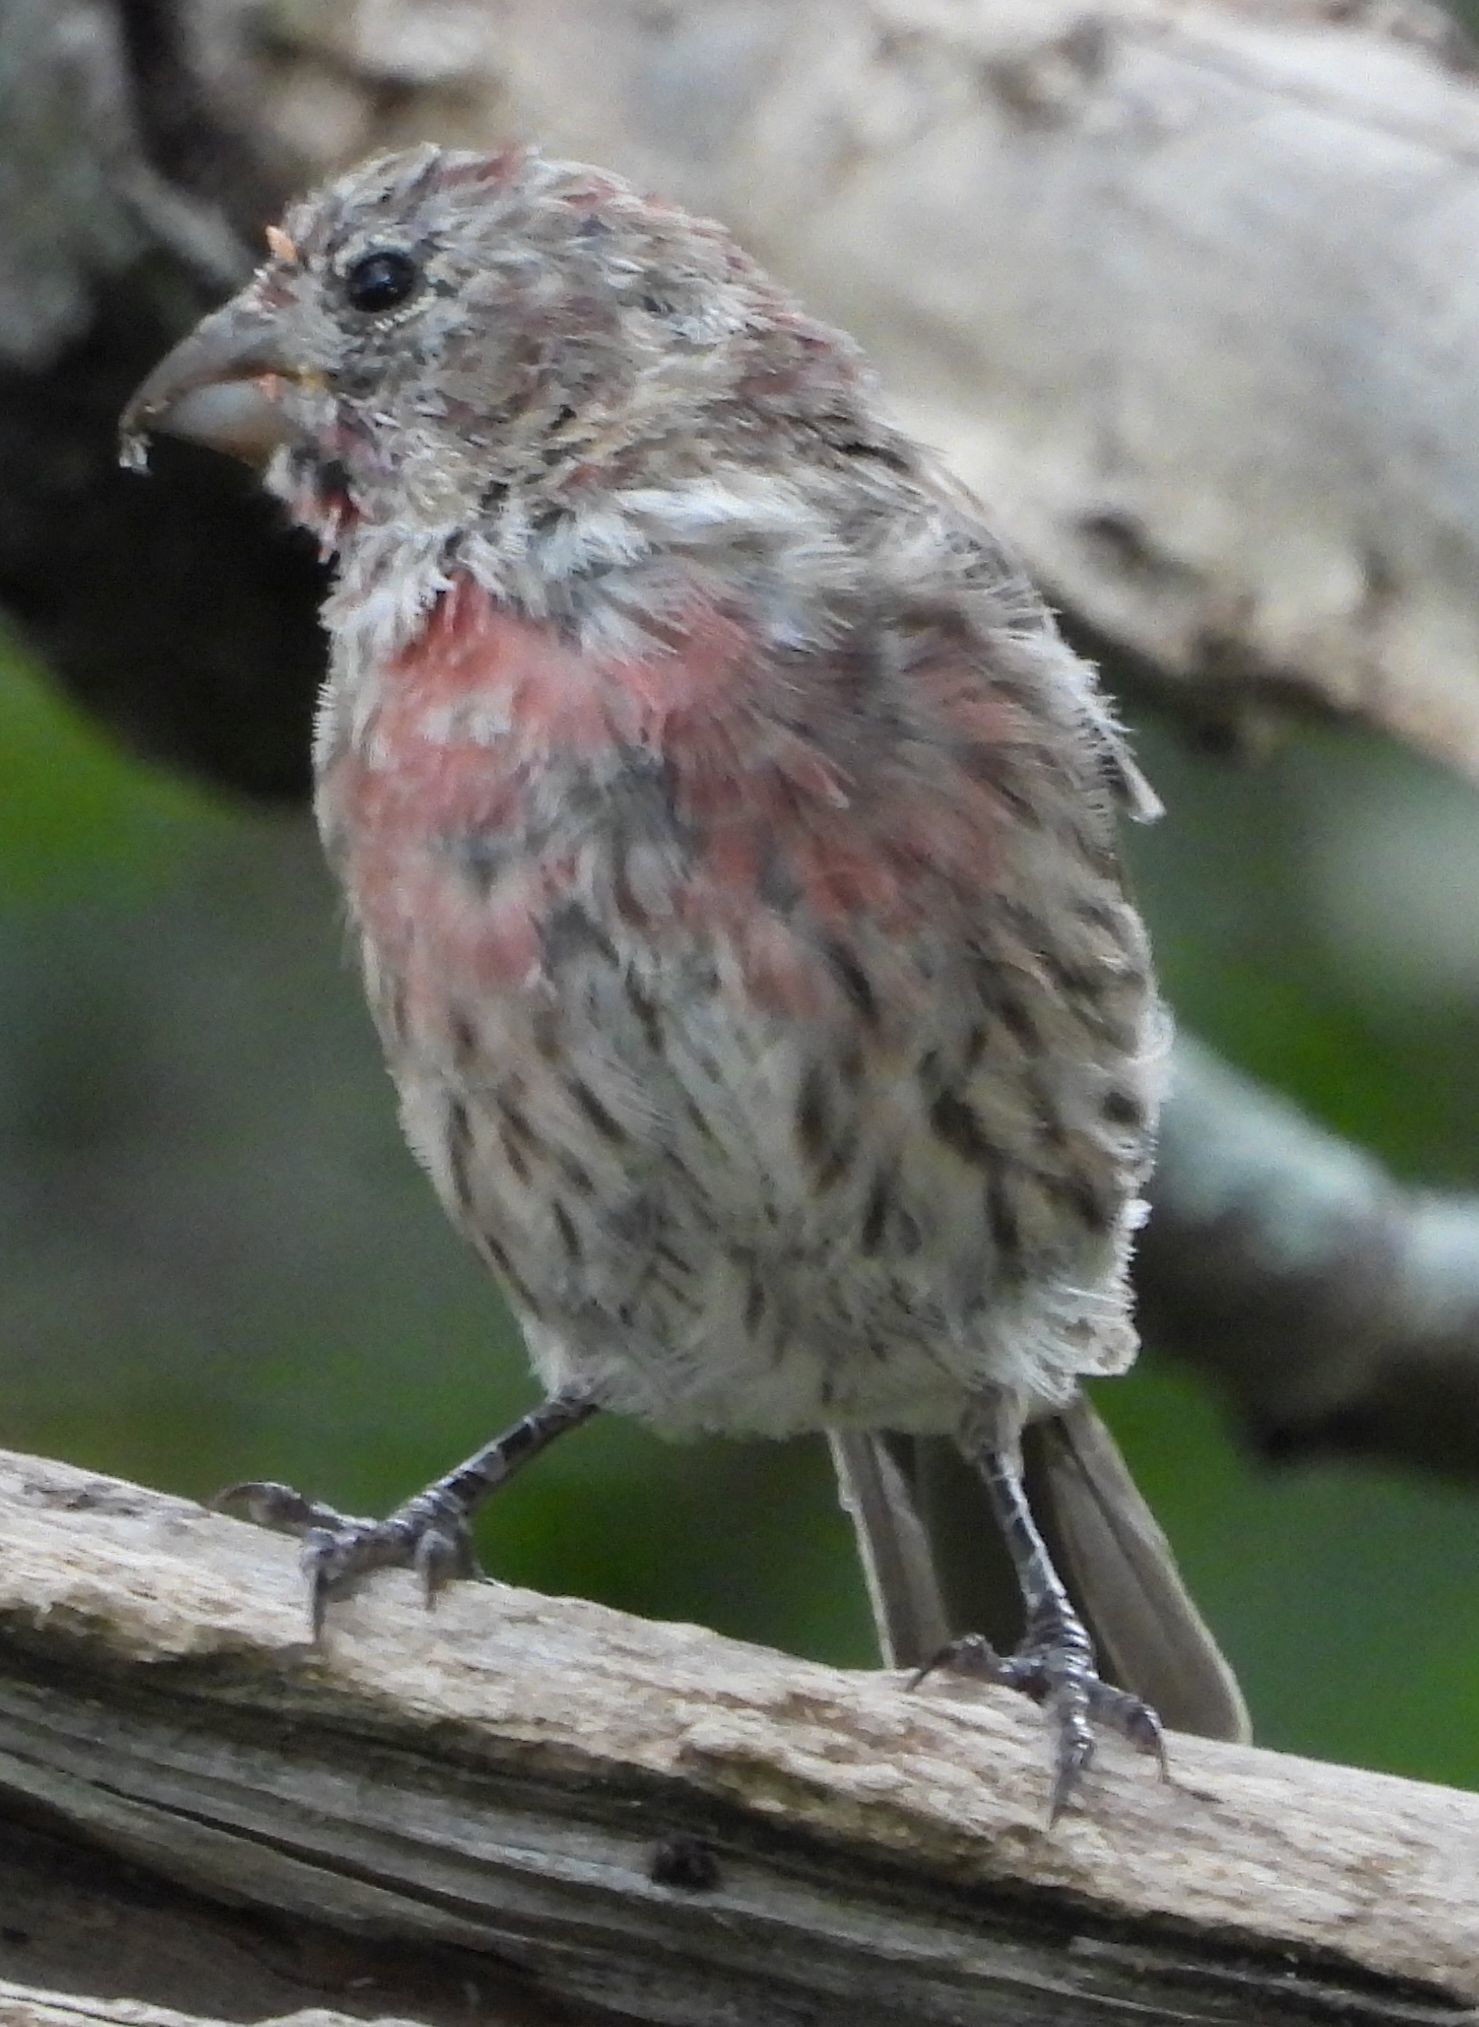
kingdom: Animalia
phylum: Chordata
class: Aves
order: Passeriformes
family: Fringillidae
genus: Haemorhous
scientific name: Haemorhous mexicanus
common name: House finch
